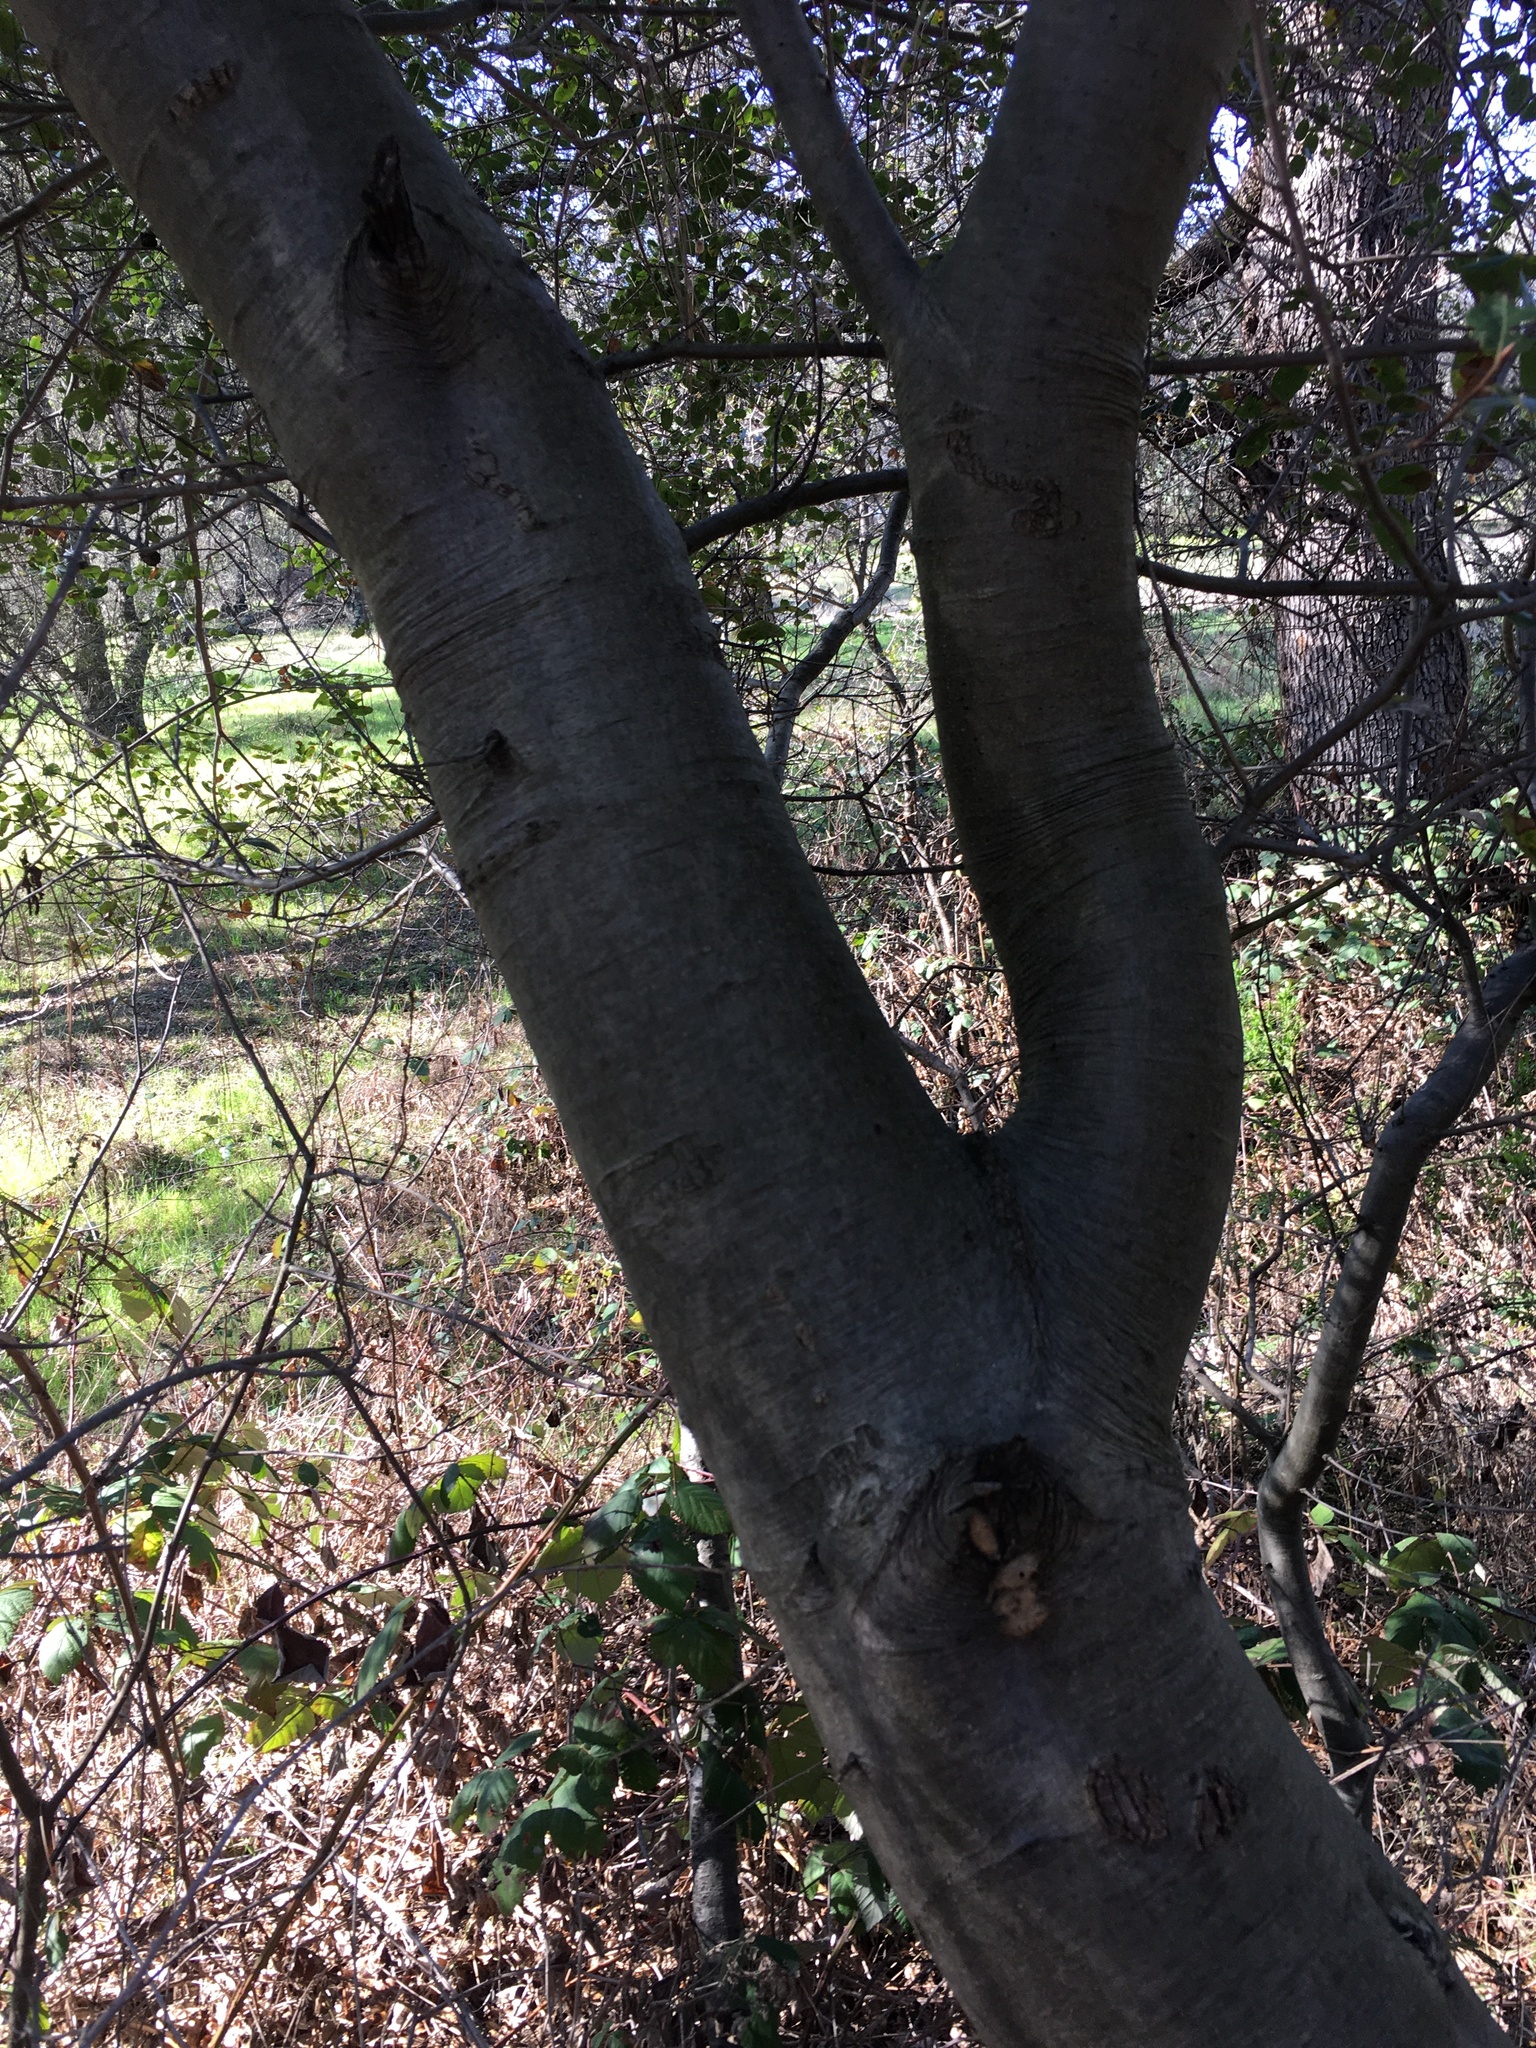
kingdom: Plantae
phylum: Tracheophyta
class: Magnoliopsida
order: Fagales
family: Fagaceae
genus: Quercus
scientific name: Quercus wislizeni
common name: Interior live oak
